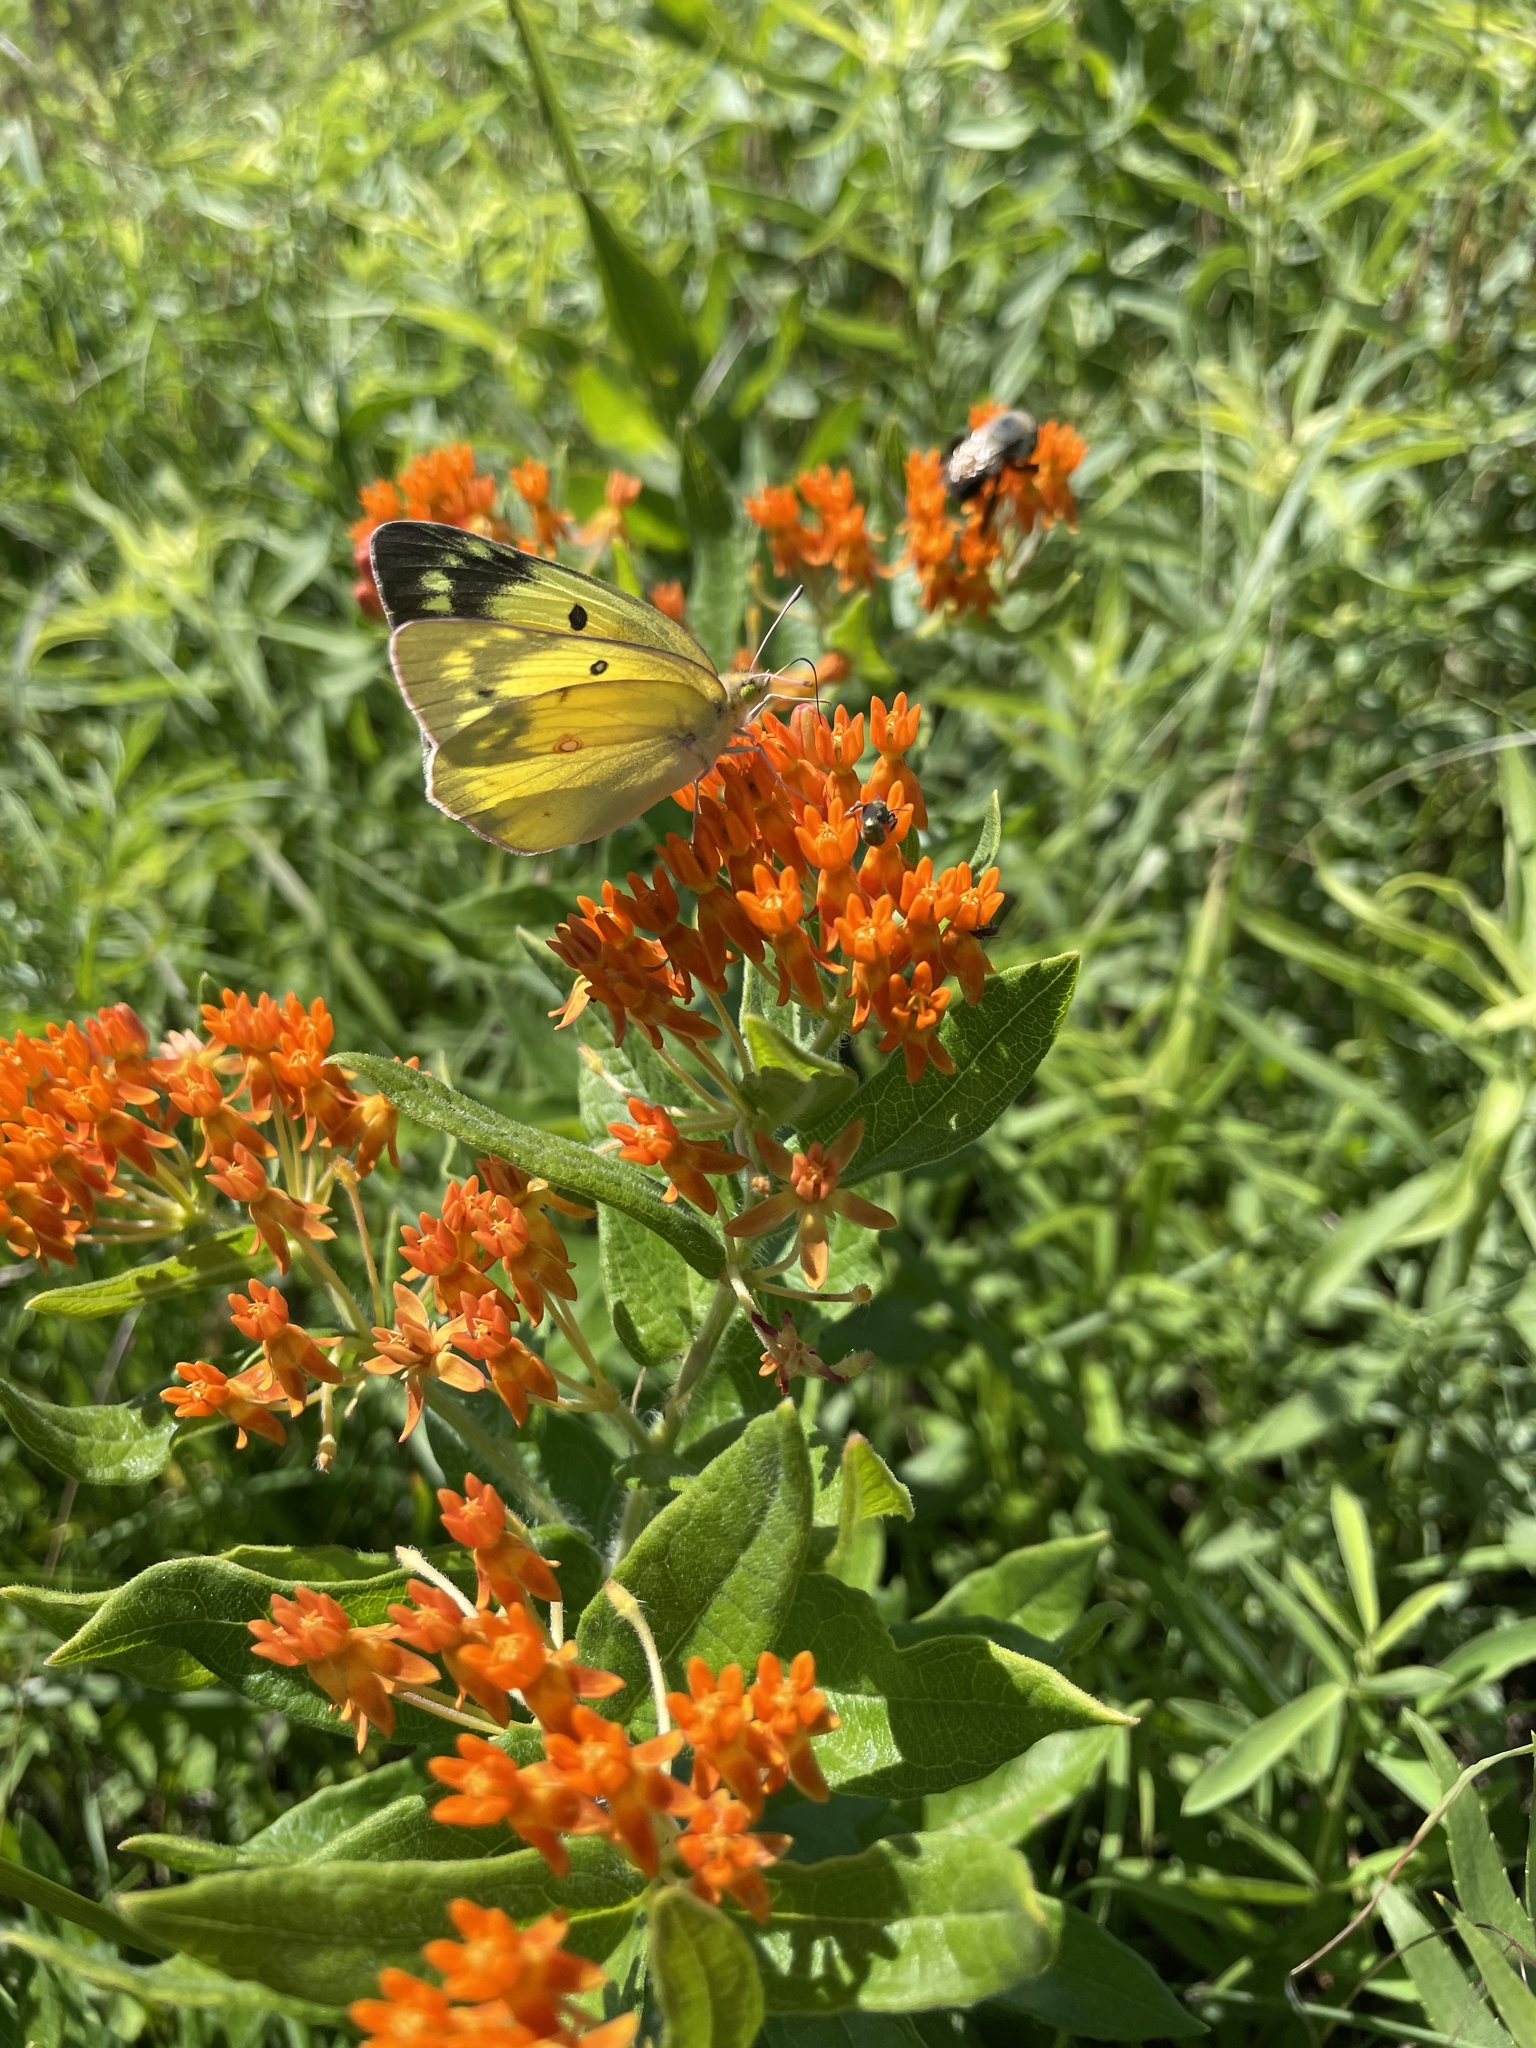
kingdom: Animalia
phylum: Arthropoda
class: Insecta
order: Lepidoptera
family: Pieridae
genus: Colias
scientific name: Colias eurytheme
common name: Alfalfa butterfly
